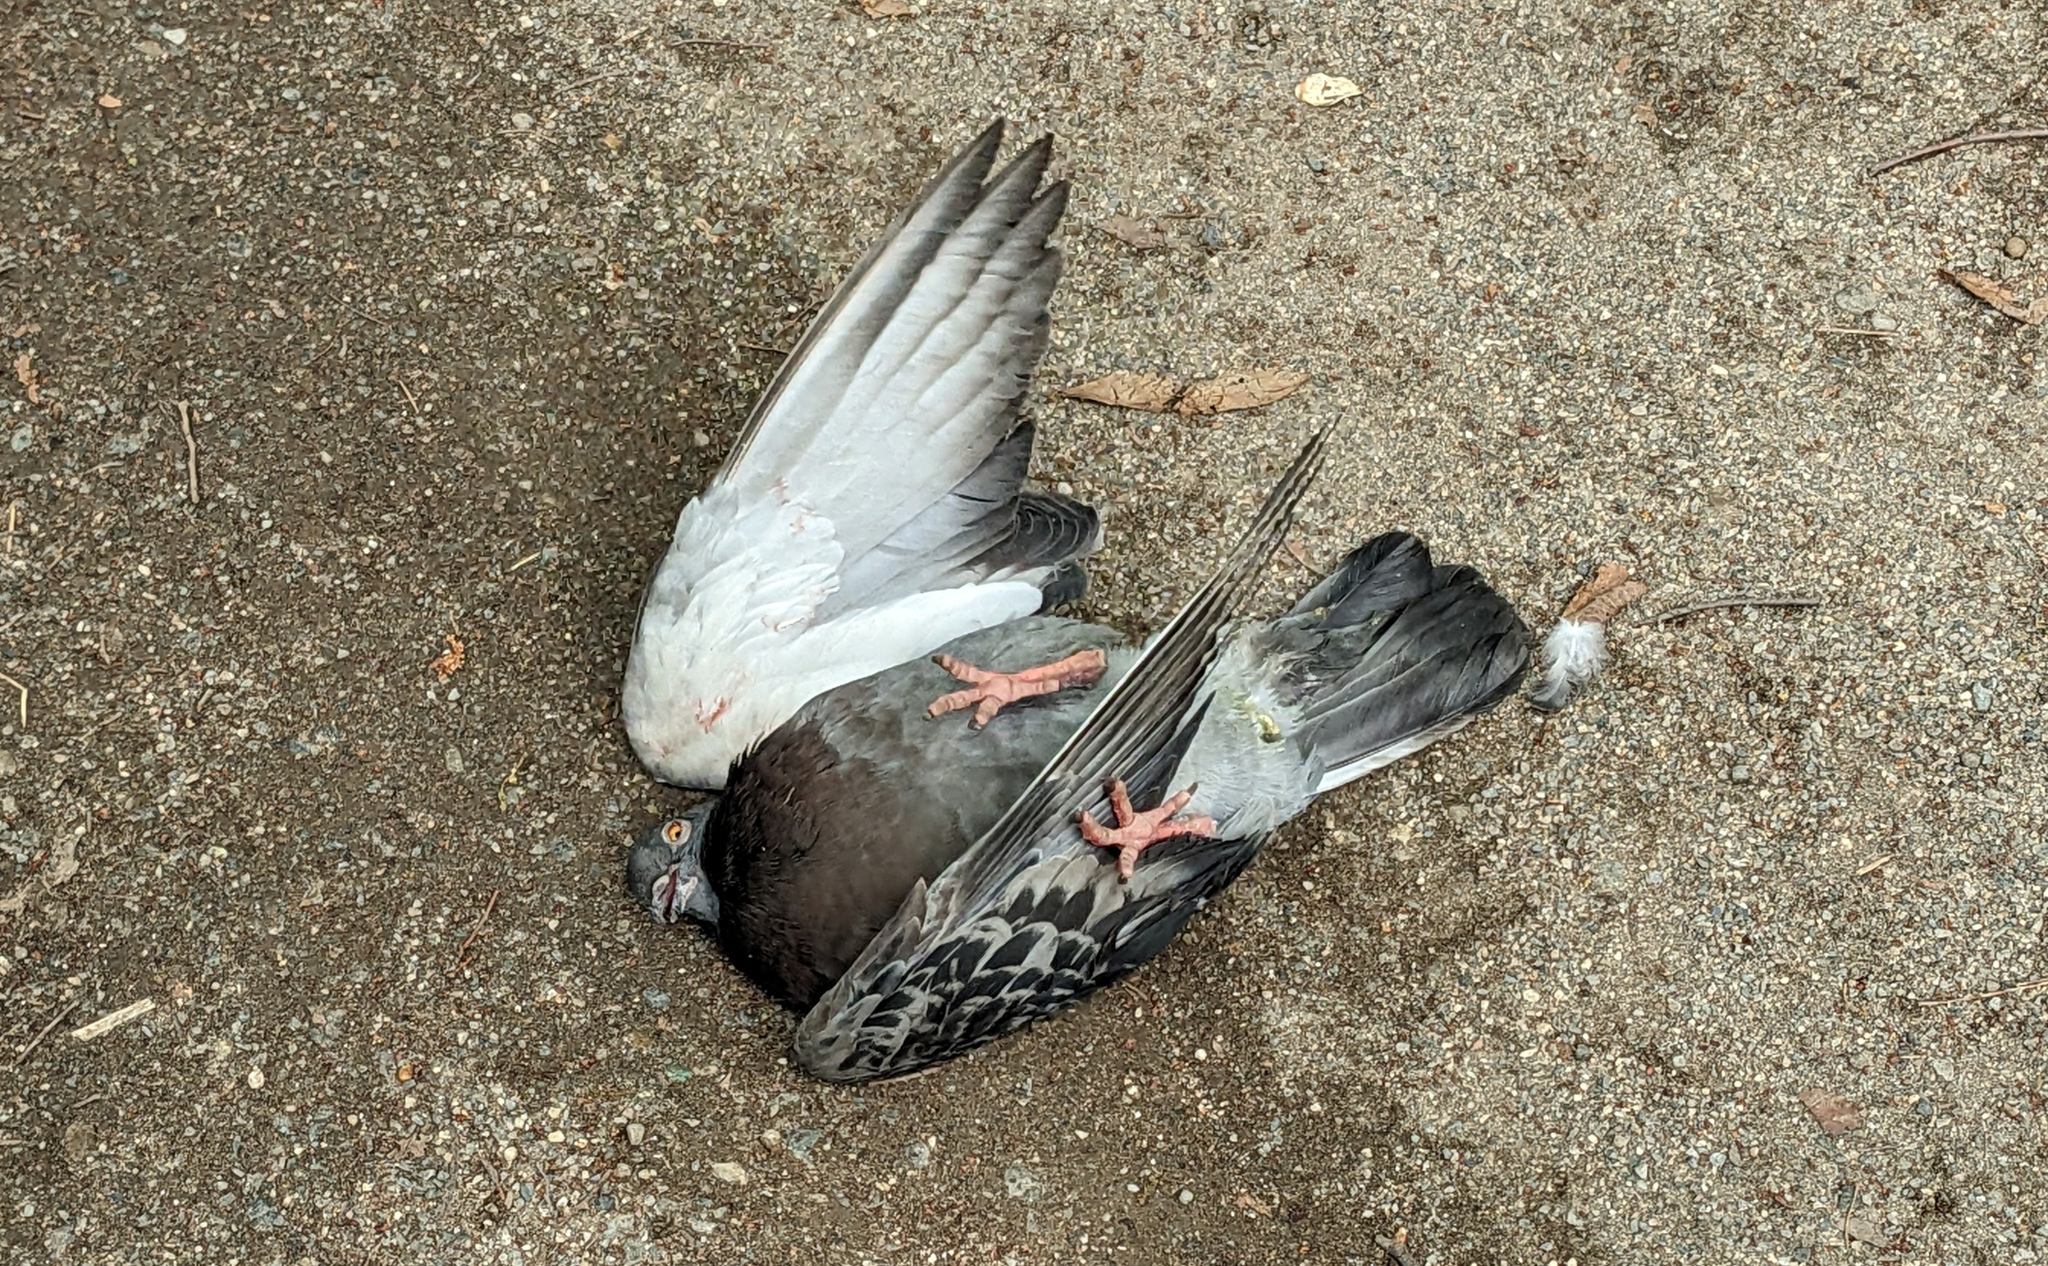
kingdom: Animalia
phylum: Chordata
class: Aves
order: Columbiformes
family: Columbidae
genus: Columba
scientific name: Columba livia
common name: Rock pigeon
